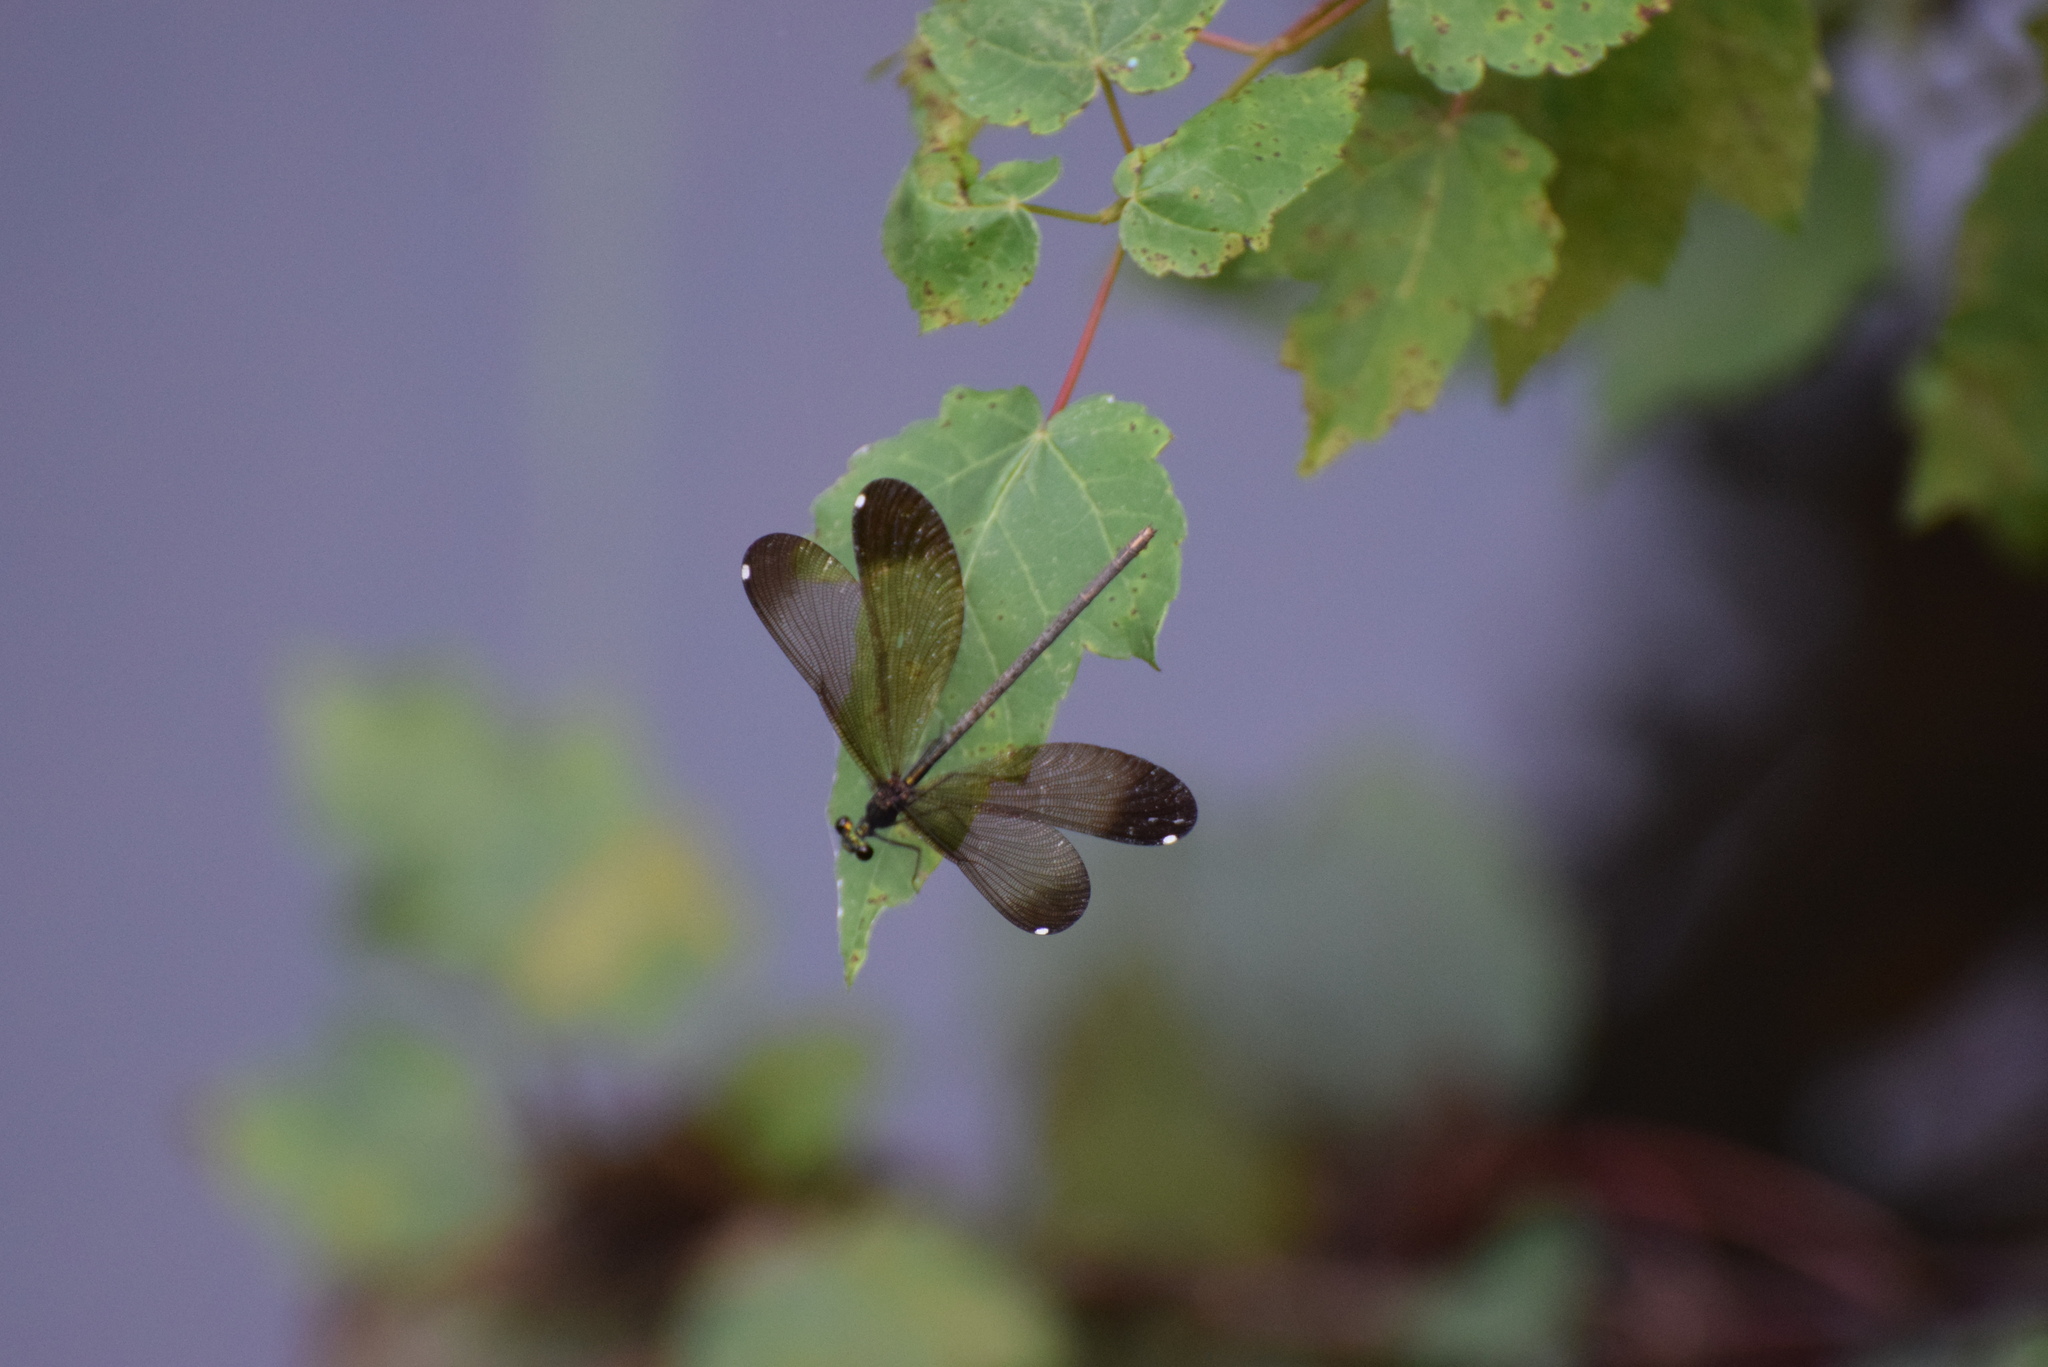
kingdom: Animalia
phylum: Arthropoda
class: Insecta
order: Odonata
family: Calopterygidae
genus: Calopteryx
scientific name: Calopteryx maculata
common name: Ebony jewelwing
